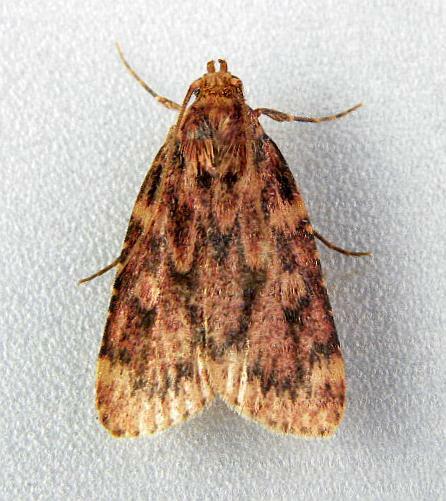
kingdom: Animalia
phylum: Arthropoda
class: Insecta
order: Lepidoptera
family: Pyralidae
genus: Aglossa
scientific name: Aglossa cuprina
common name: Grease moth
